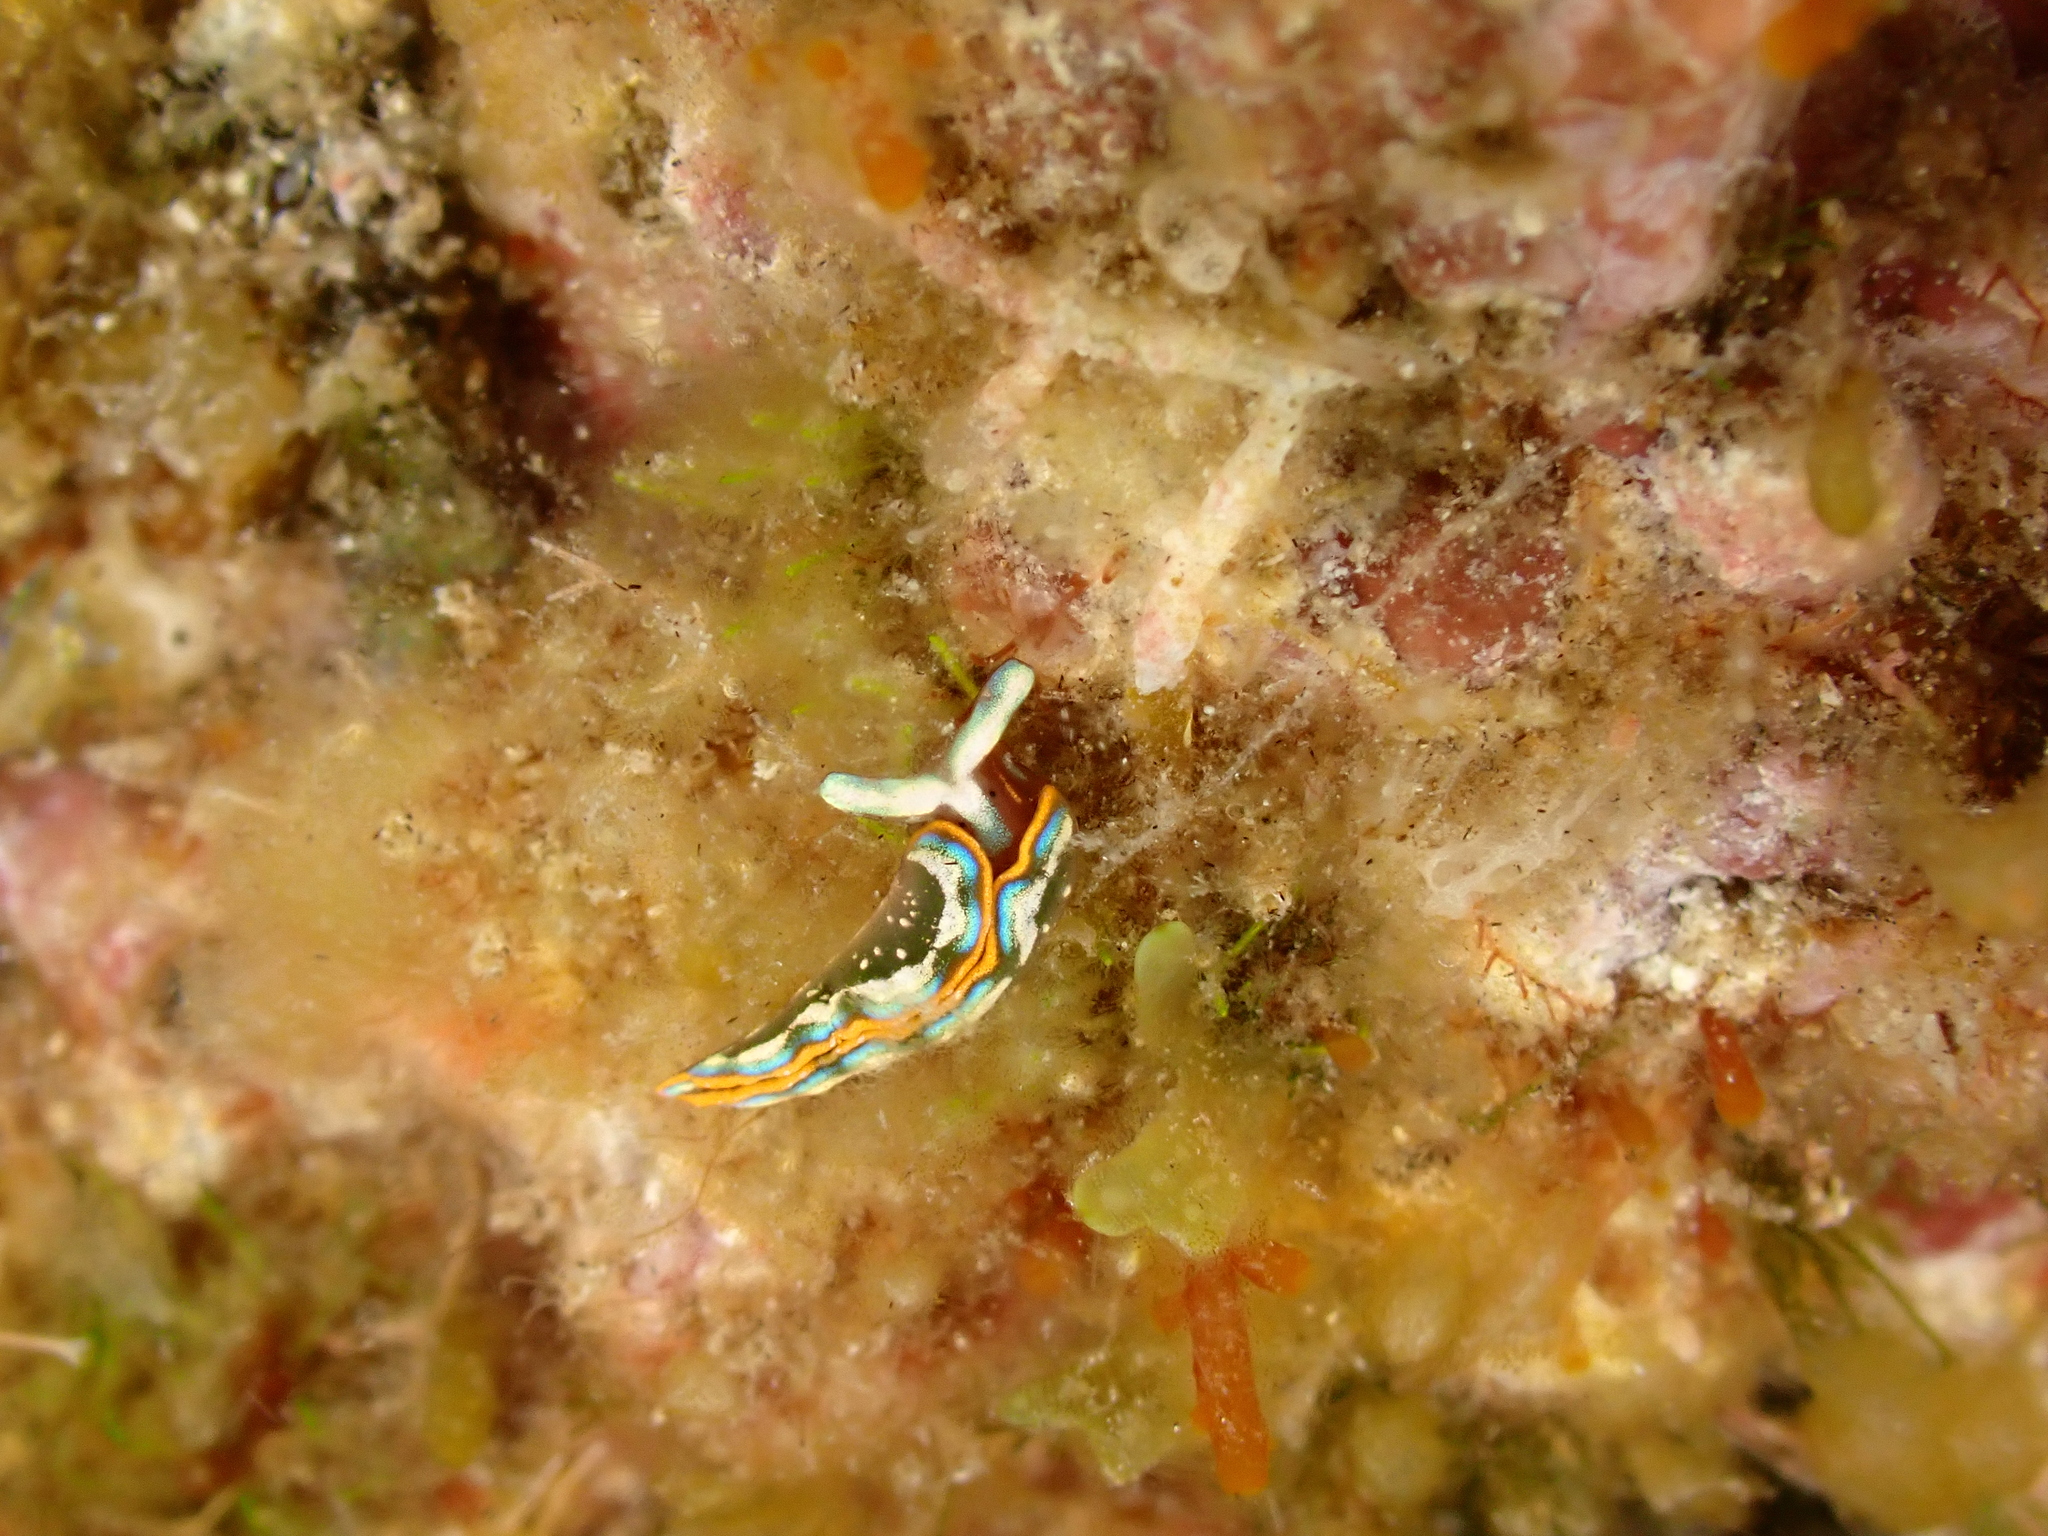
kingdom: Animalia
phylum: Mollusca
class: Gastropoda
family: Plakobranchidae
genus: Thuridilla
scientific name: Thuridilla hopei
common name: Splendid elysia
